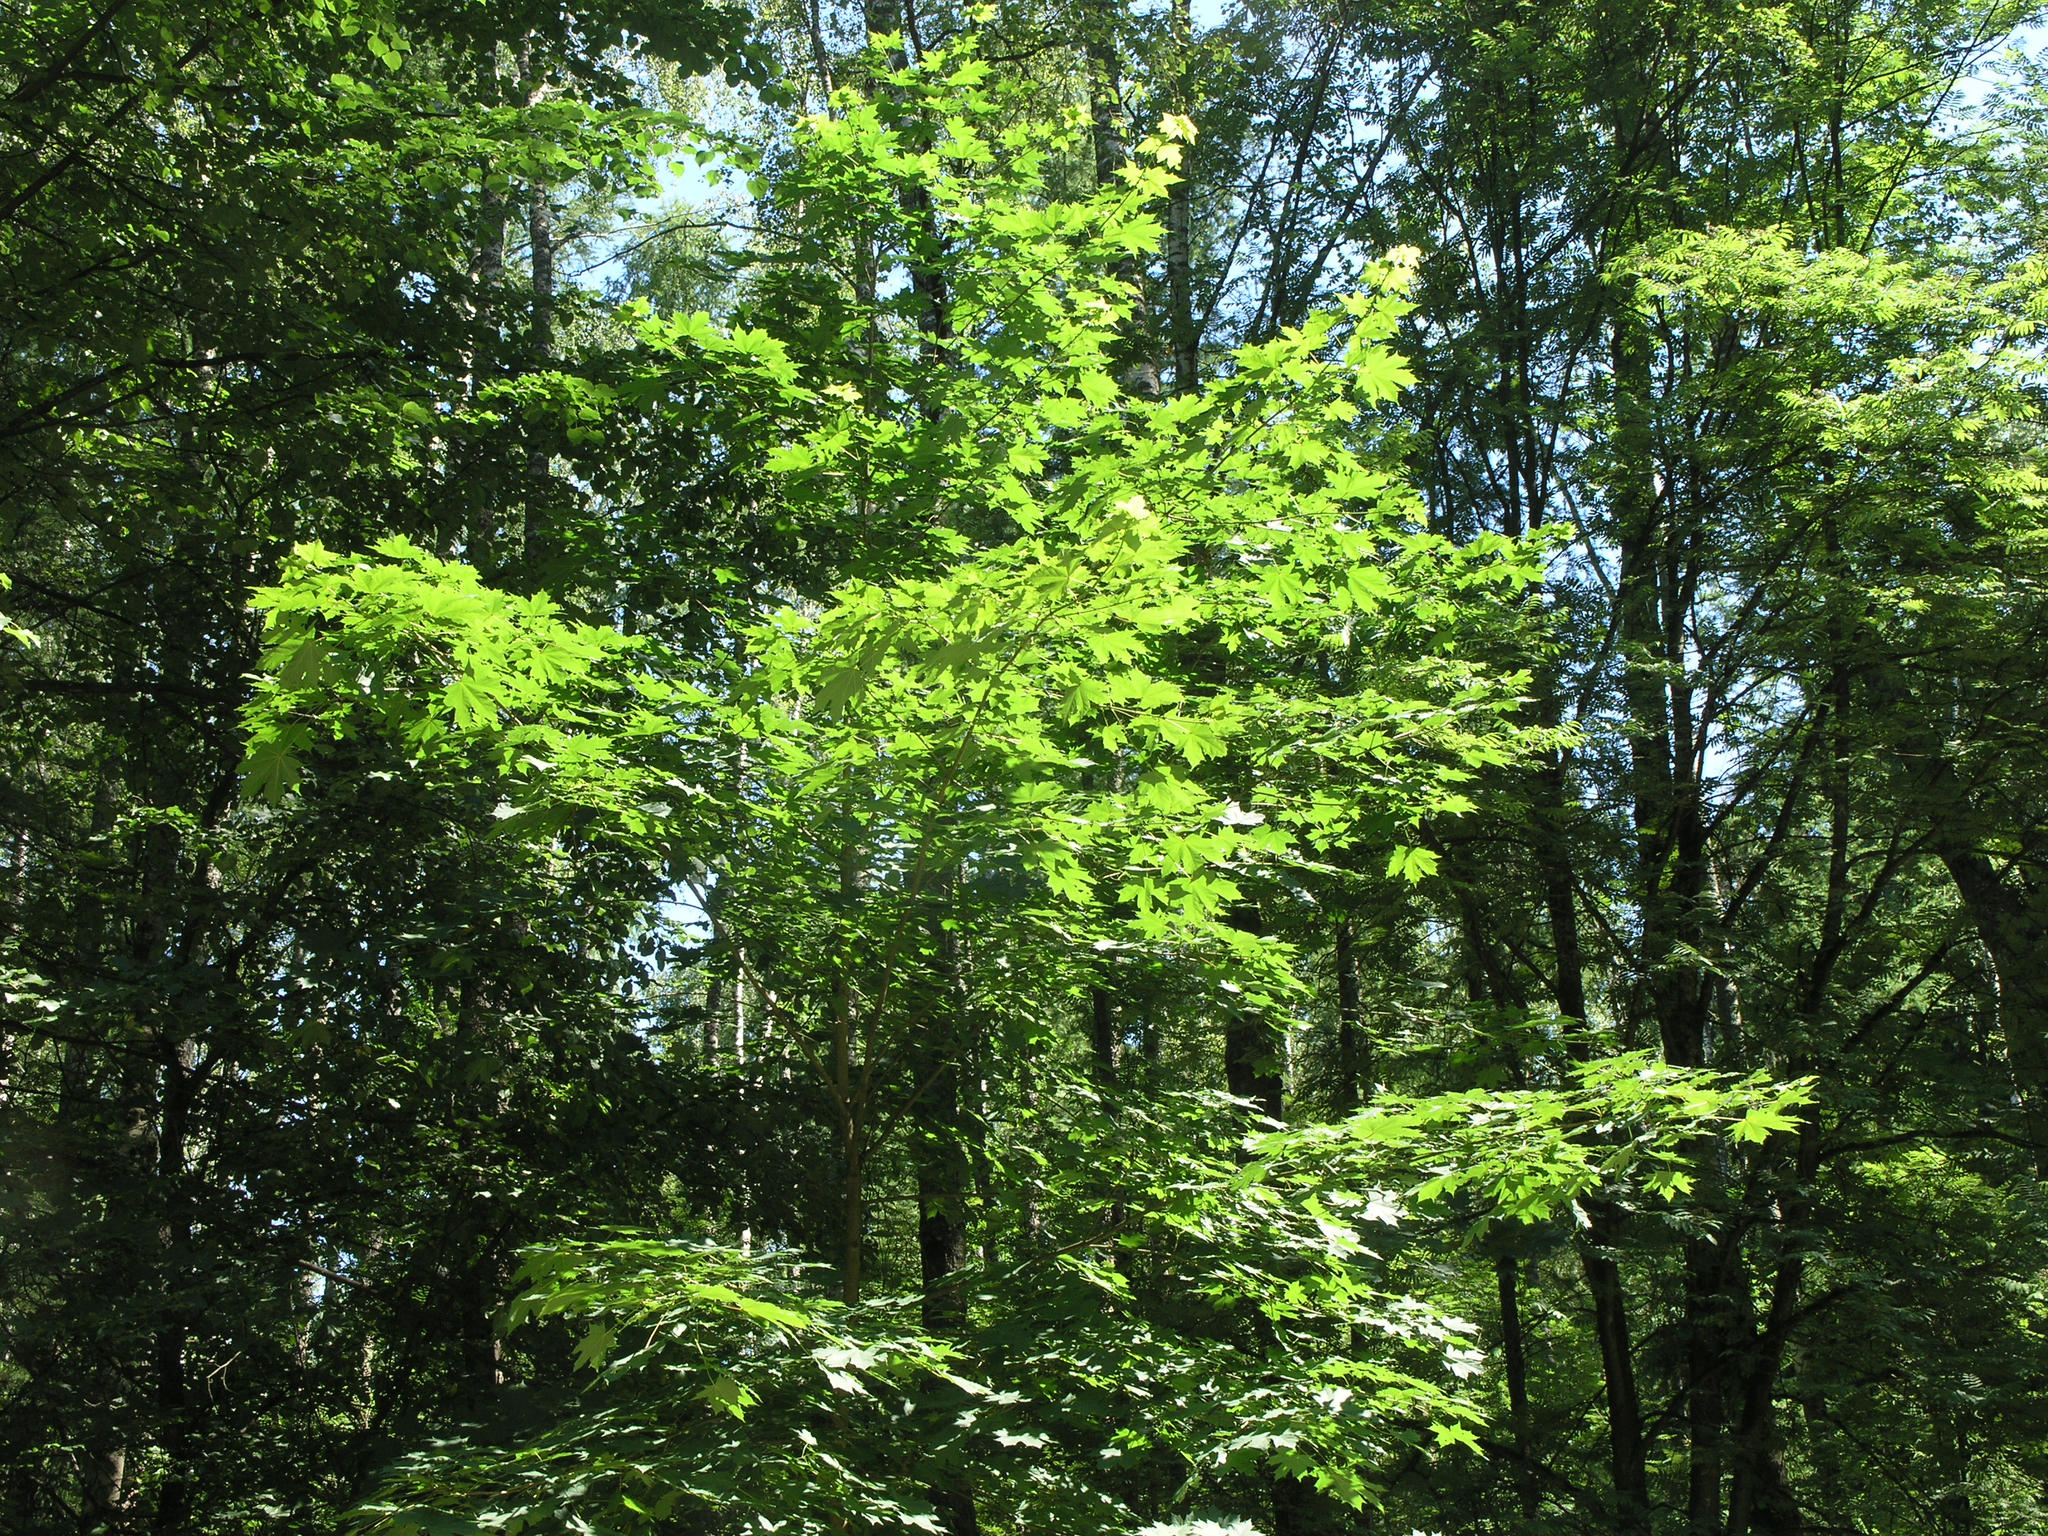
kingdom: Plantae
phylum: Tracheophyta
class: Magnoliopsida
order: Sapindales
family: Sapindaceae
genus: Acer
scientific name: Acer platanoides
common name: Norway maple
